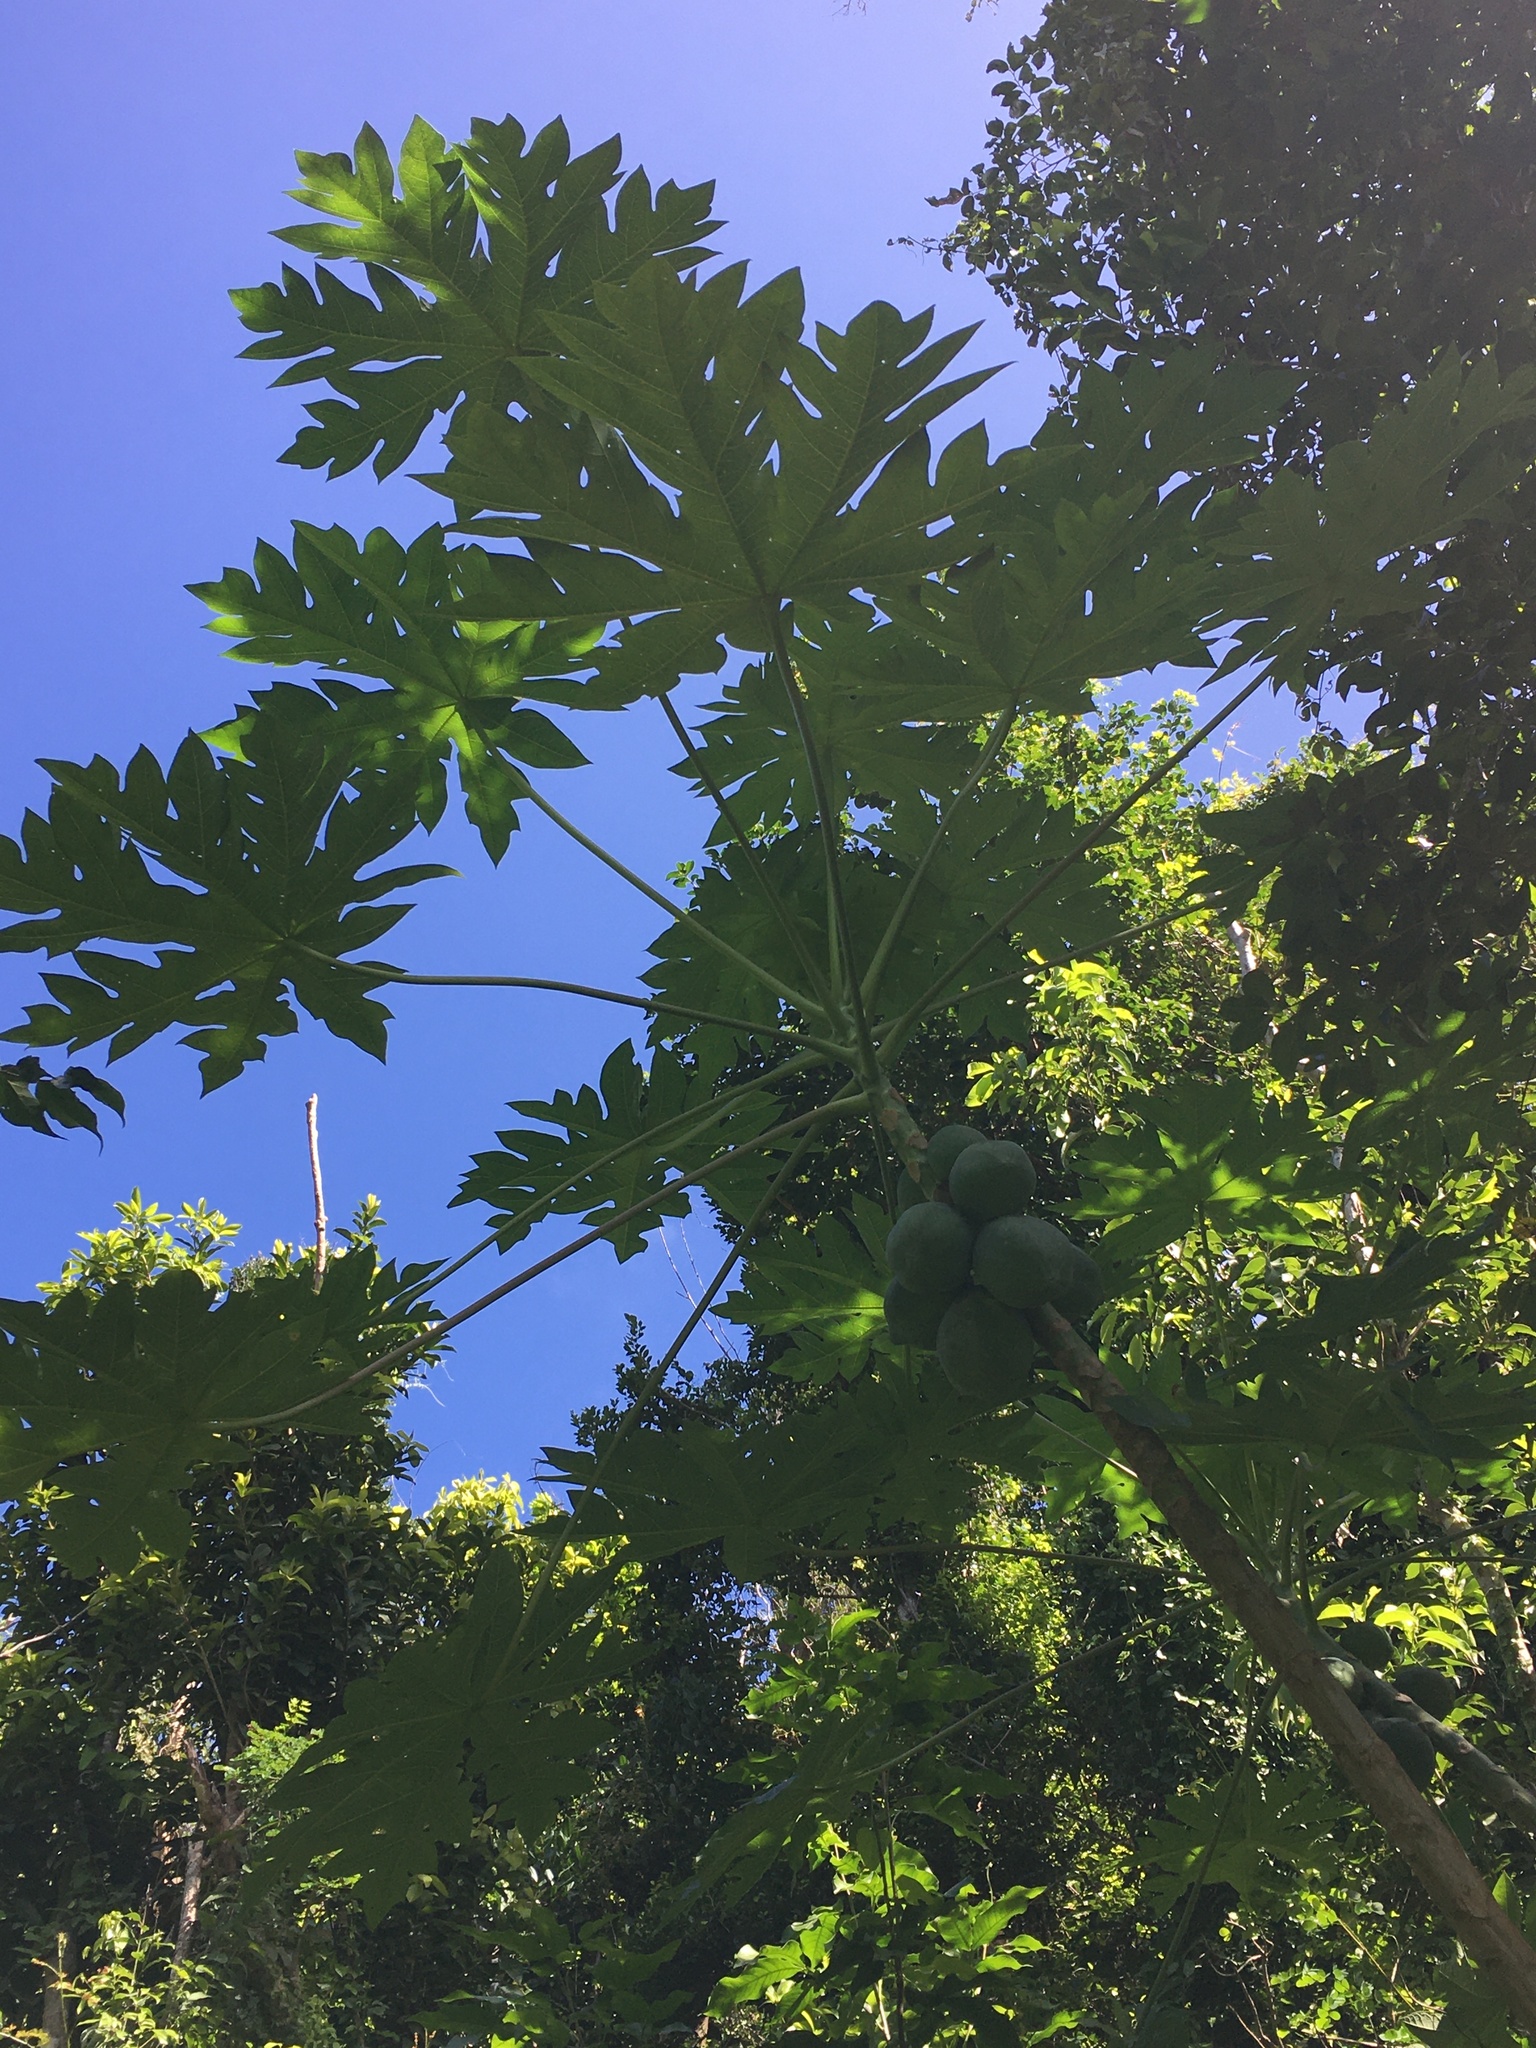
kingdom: Plantae
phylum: Tracheophyta
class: Magnoliopsida
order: Brassicales
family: Caricaceae
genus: Carica
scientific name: Carica papaya
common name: Papaya
